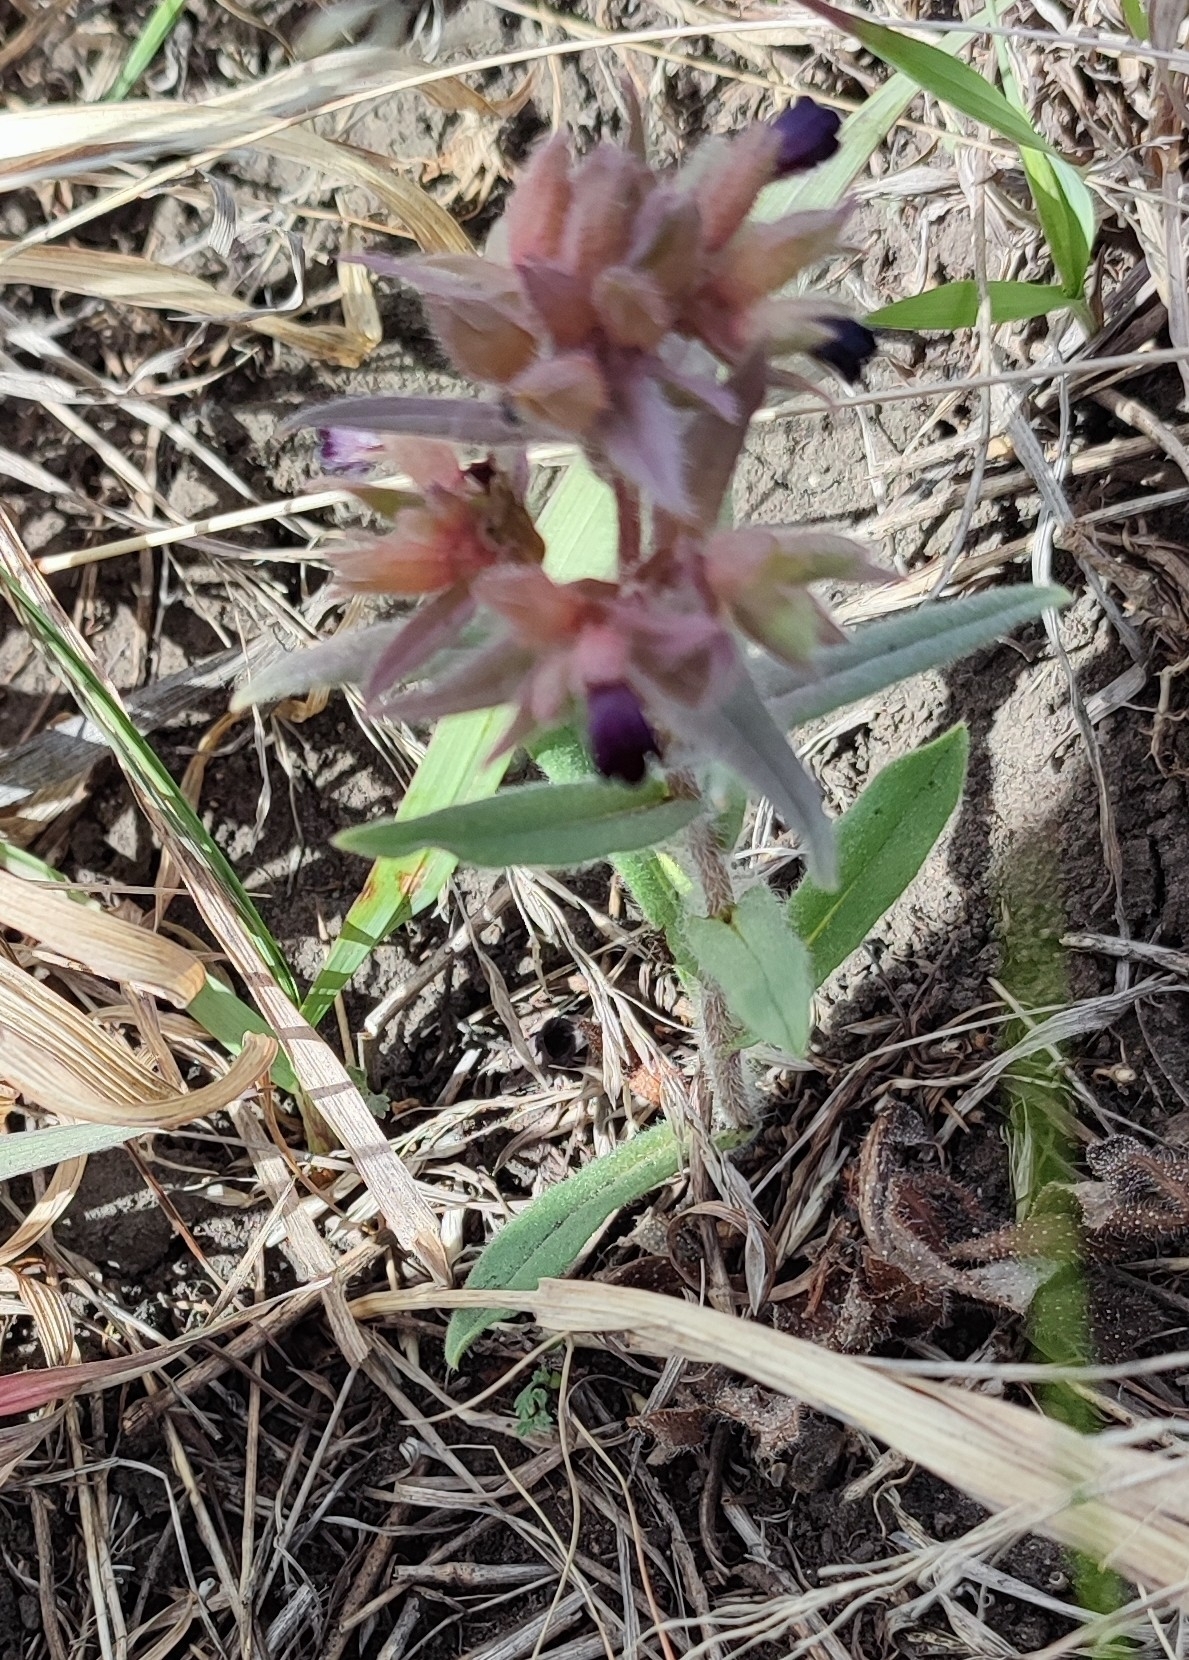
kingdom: Plantae
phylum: Tracheophyta
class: Magnoliopsida
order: Boraginales
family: Boraginaceae
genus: Nonea
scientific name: Nonea pulla
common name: Brown nonea
